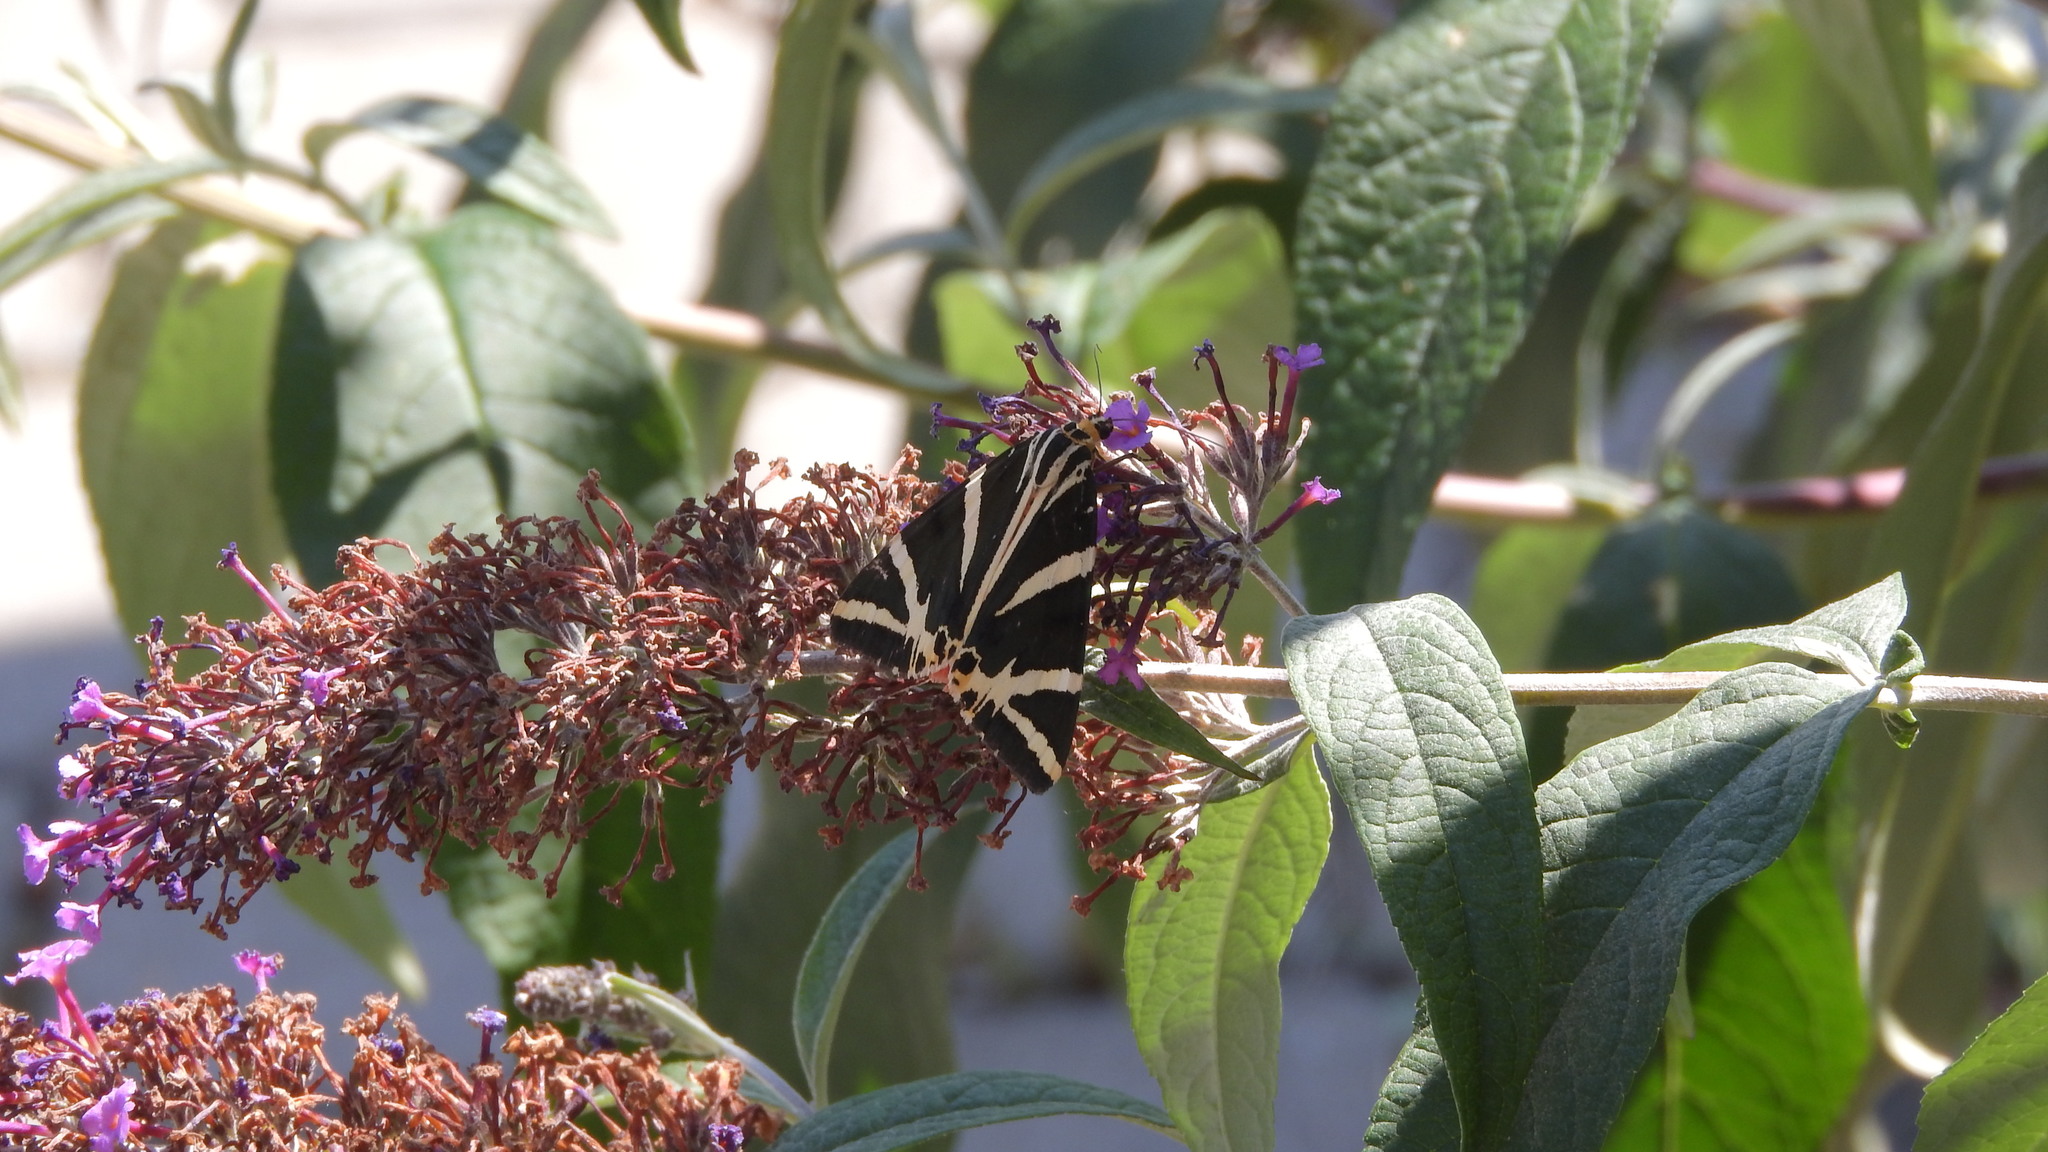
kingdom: Animalia
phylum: Arthropoda
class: Insecta
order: Lepidoptera
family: Erebidae
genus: Euplagia
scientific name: Euplagia quadripunctaria
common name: Jersey tiger
